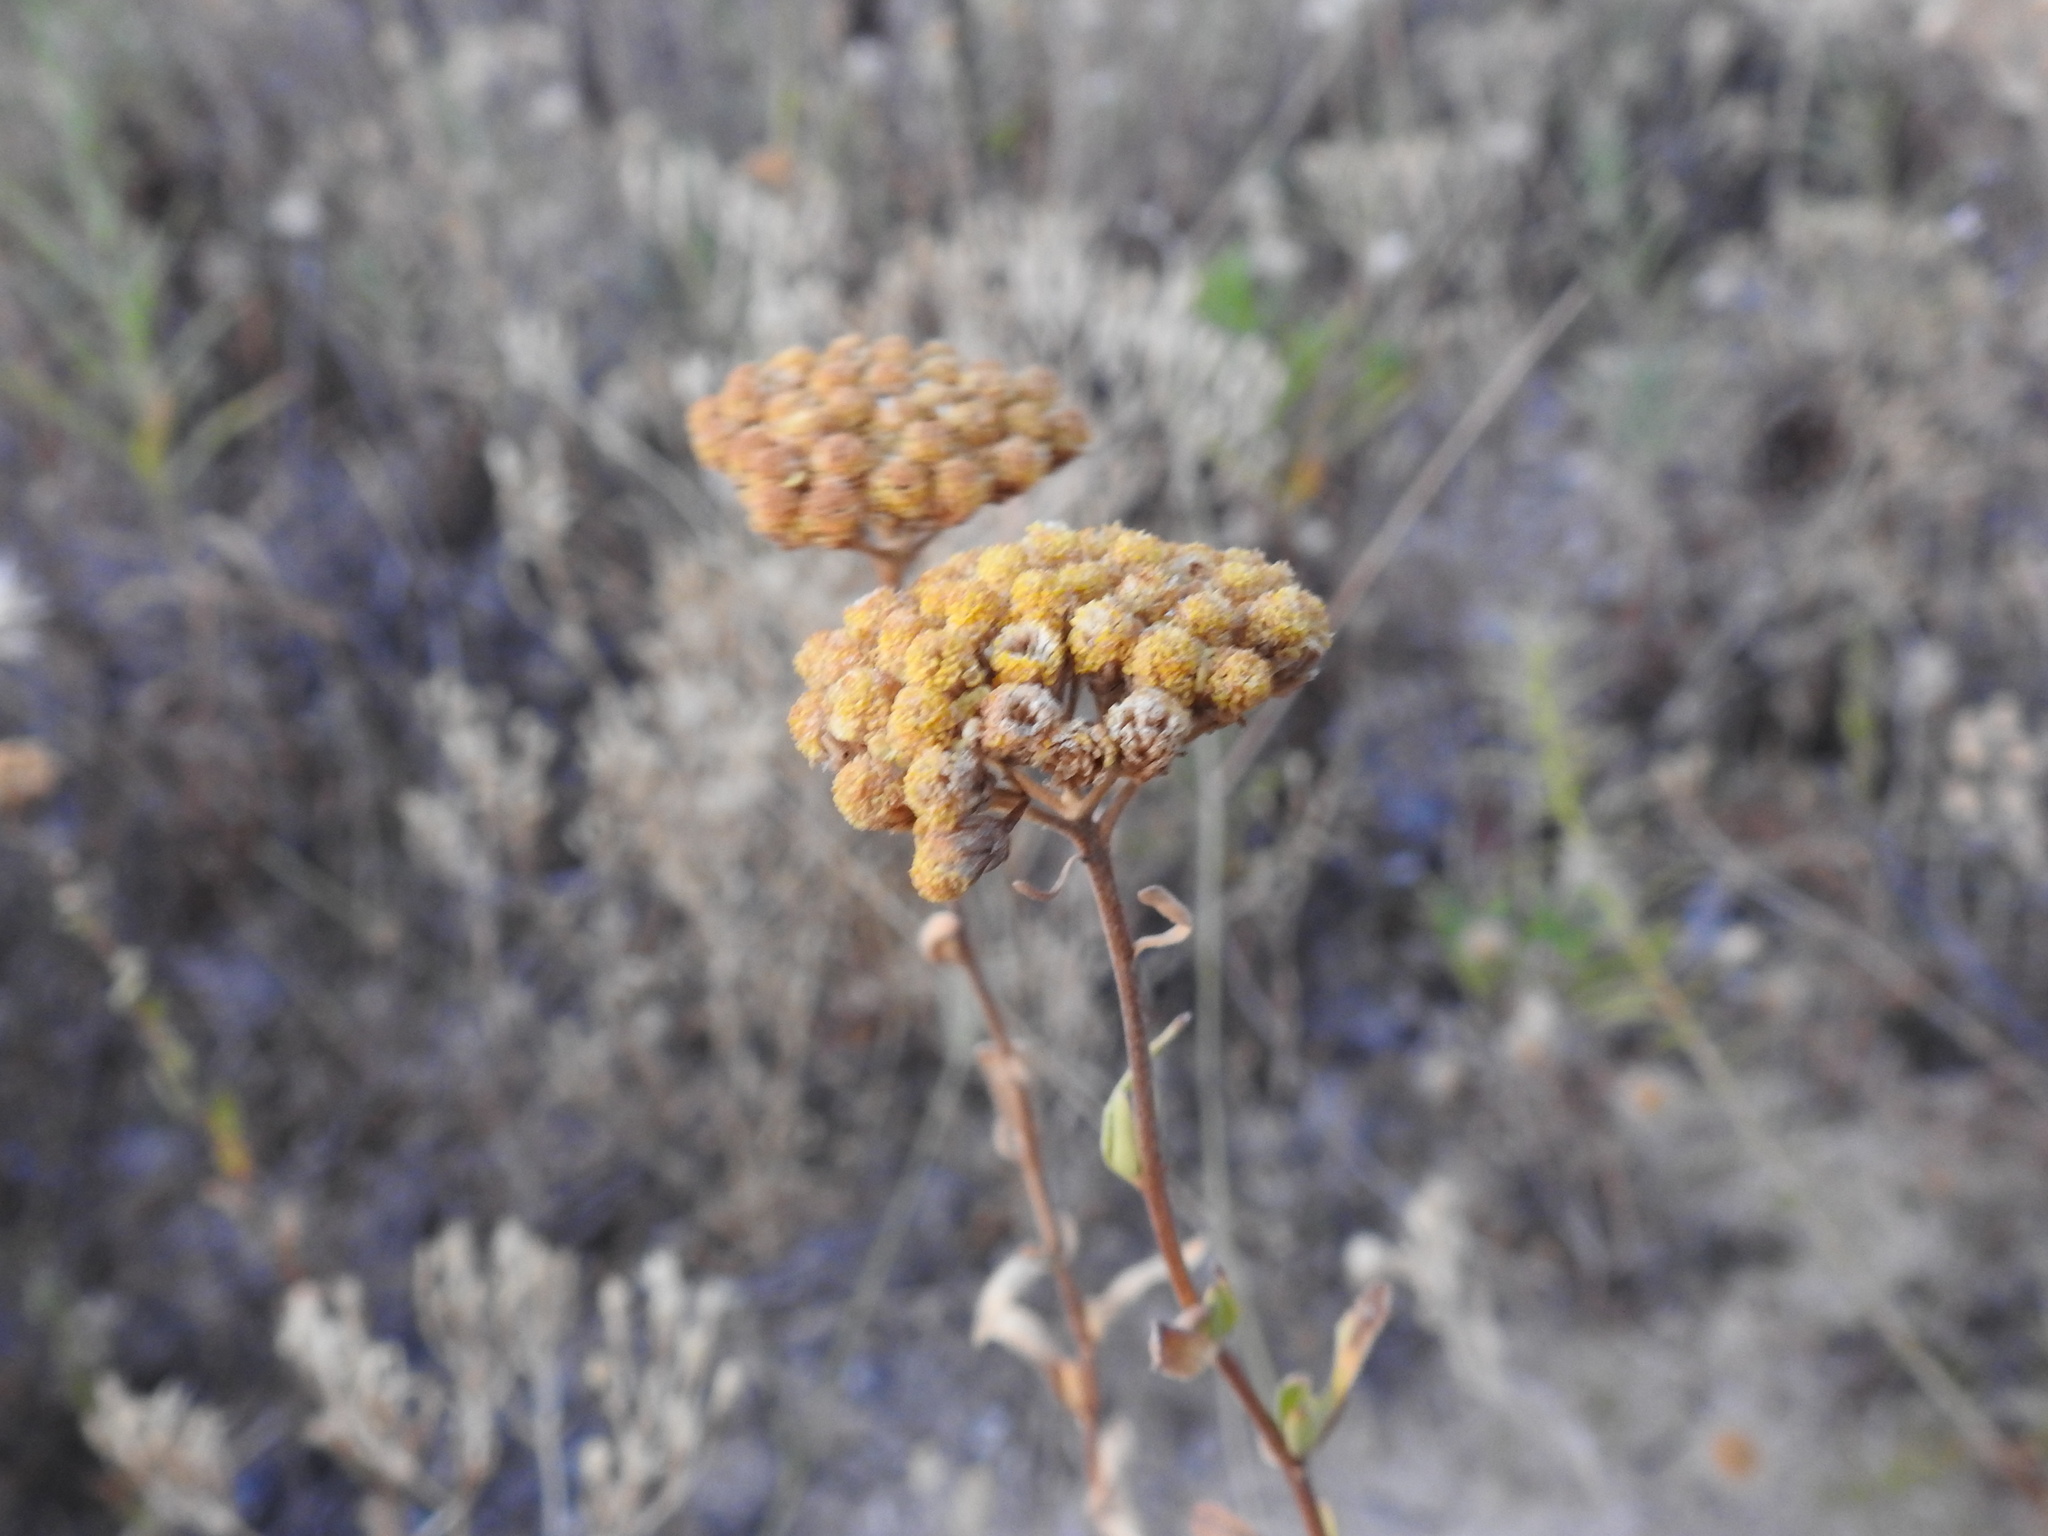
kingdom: Plantae
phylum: Tracheophyta
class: Magnoliopsida
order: Asterales
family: Asteraceae
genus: Achillea
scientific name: Achillea ageratum
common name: Sweet-nancy
